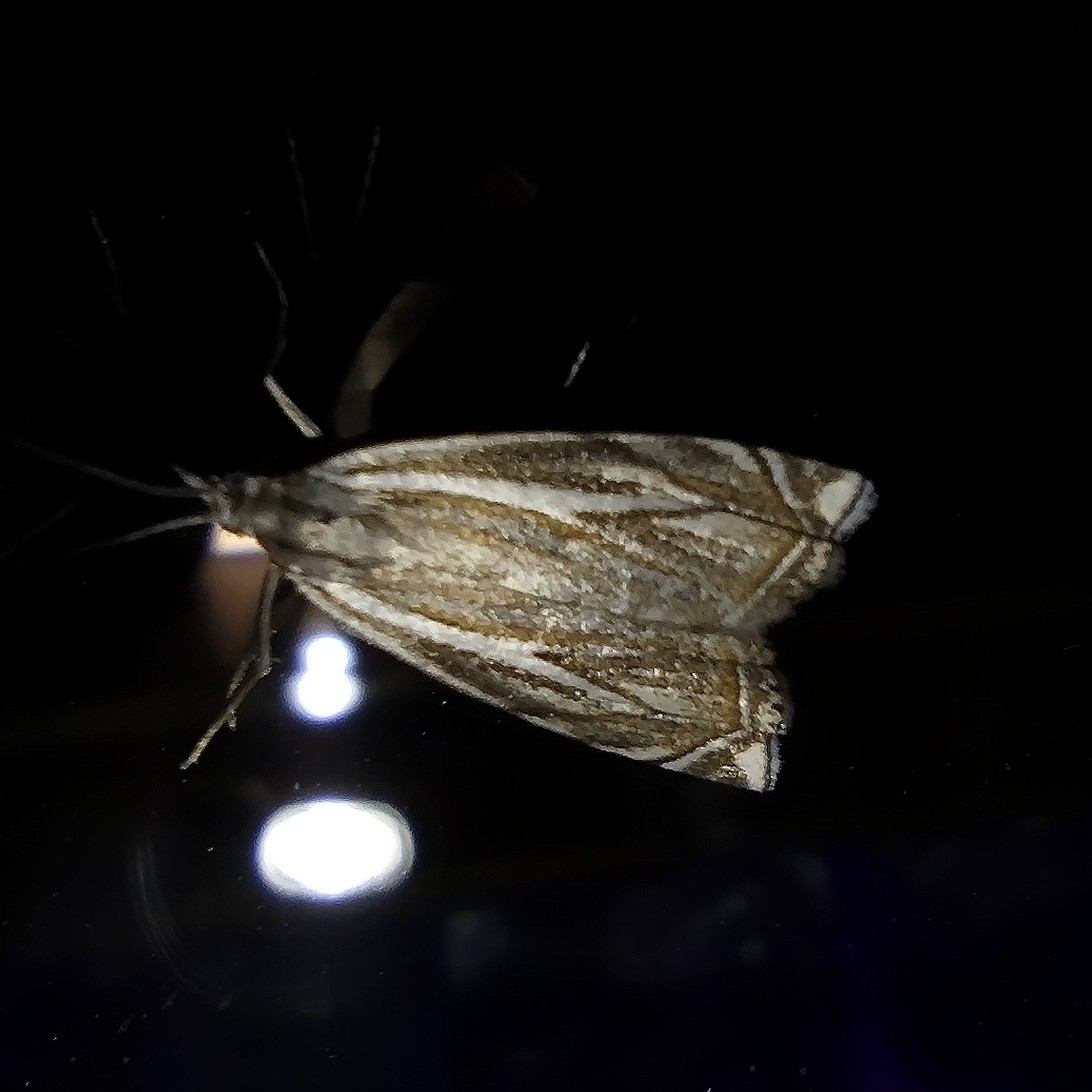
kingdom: Animalia
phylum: Arthropoda
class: Insecta
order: Lepidoptera
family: Crambidae
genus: Crambus
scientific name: Crambus nemorella
